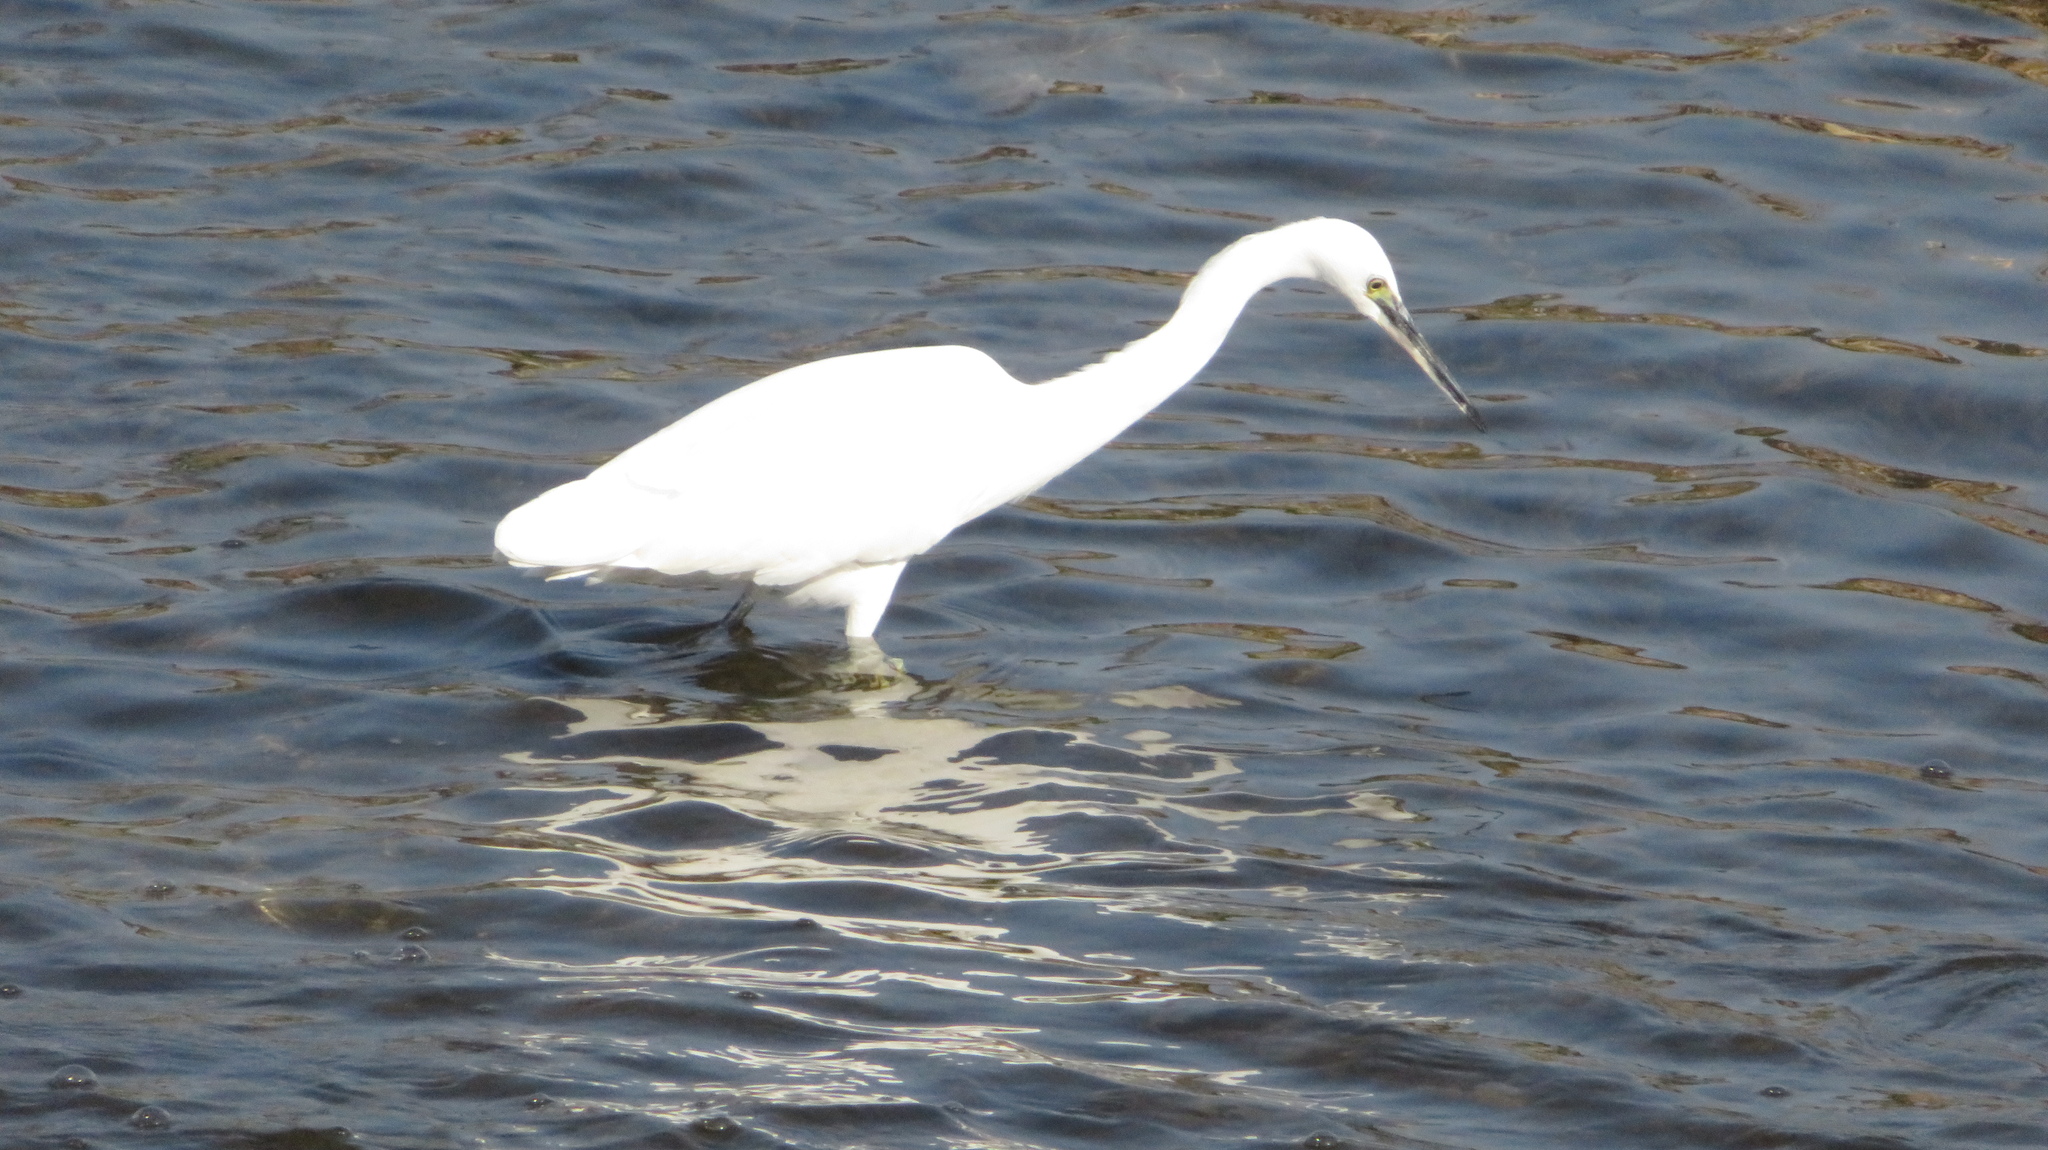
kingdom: Animalia
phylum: Chordata
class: Aves
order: Pelecaniformes
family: Ardeidae
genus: Egretta
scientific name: Egretta garzetta
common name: Little egret
